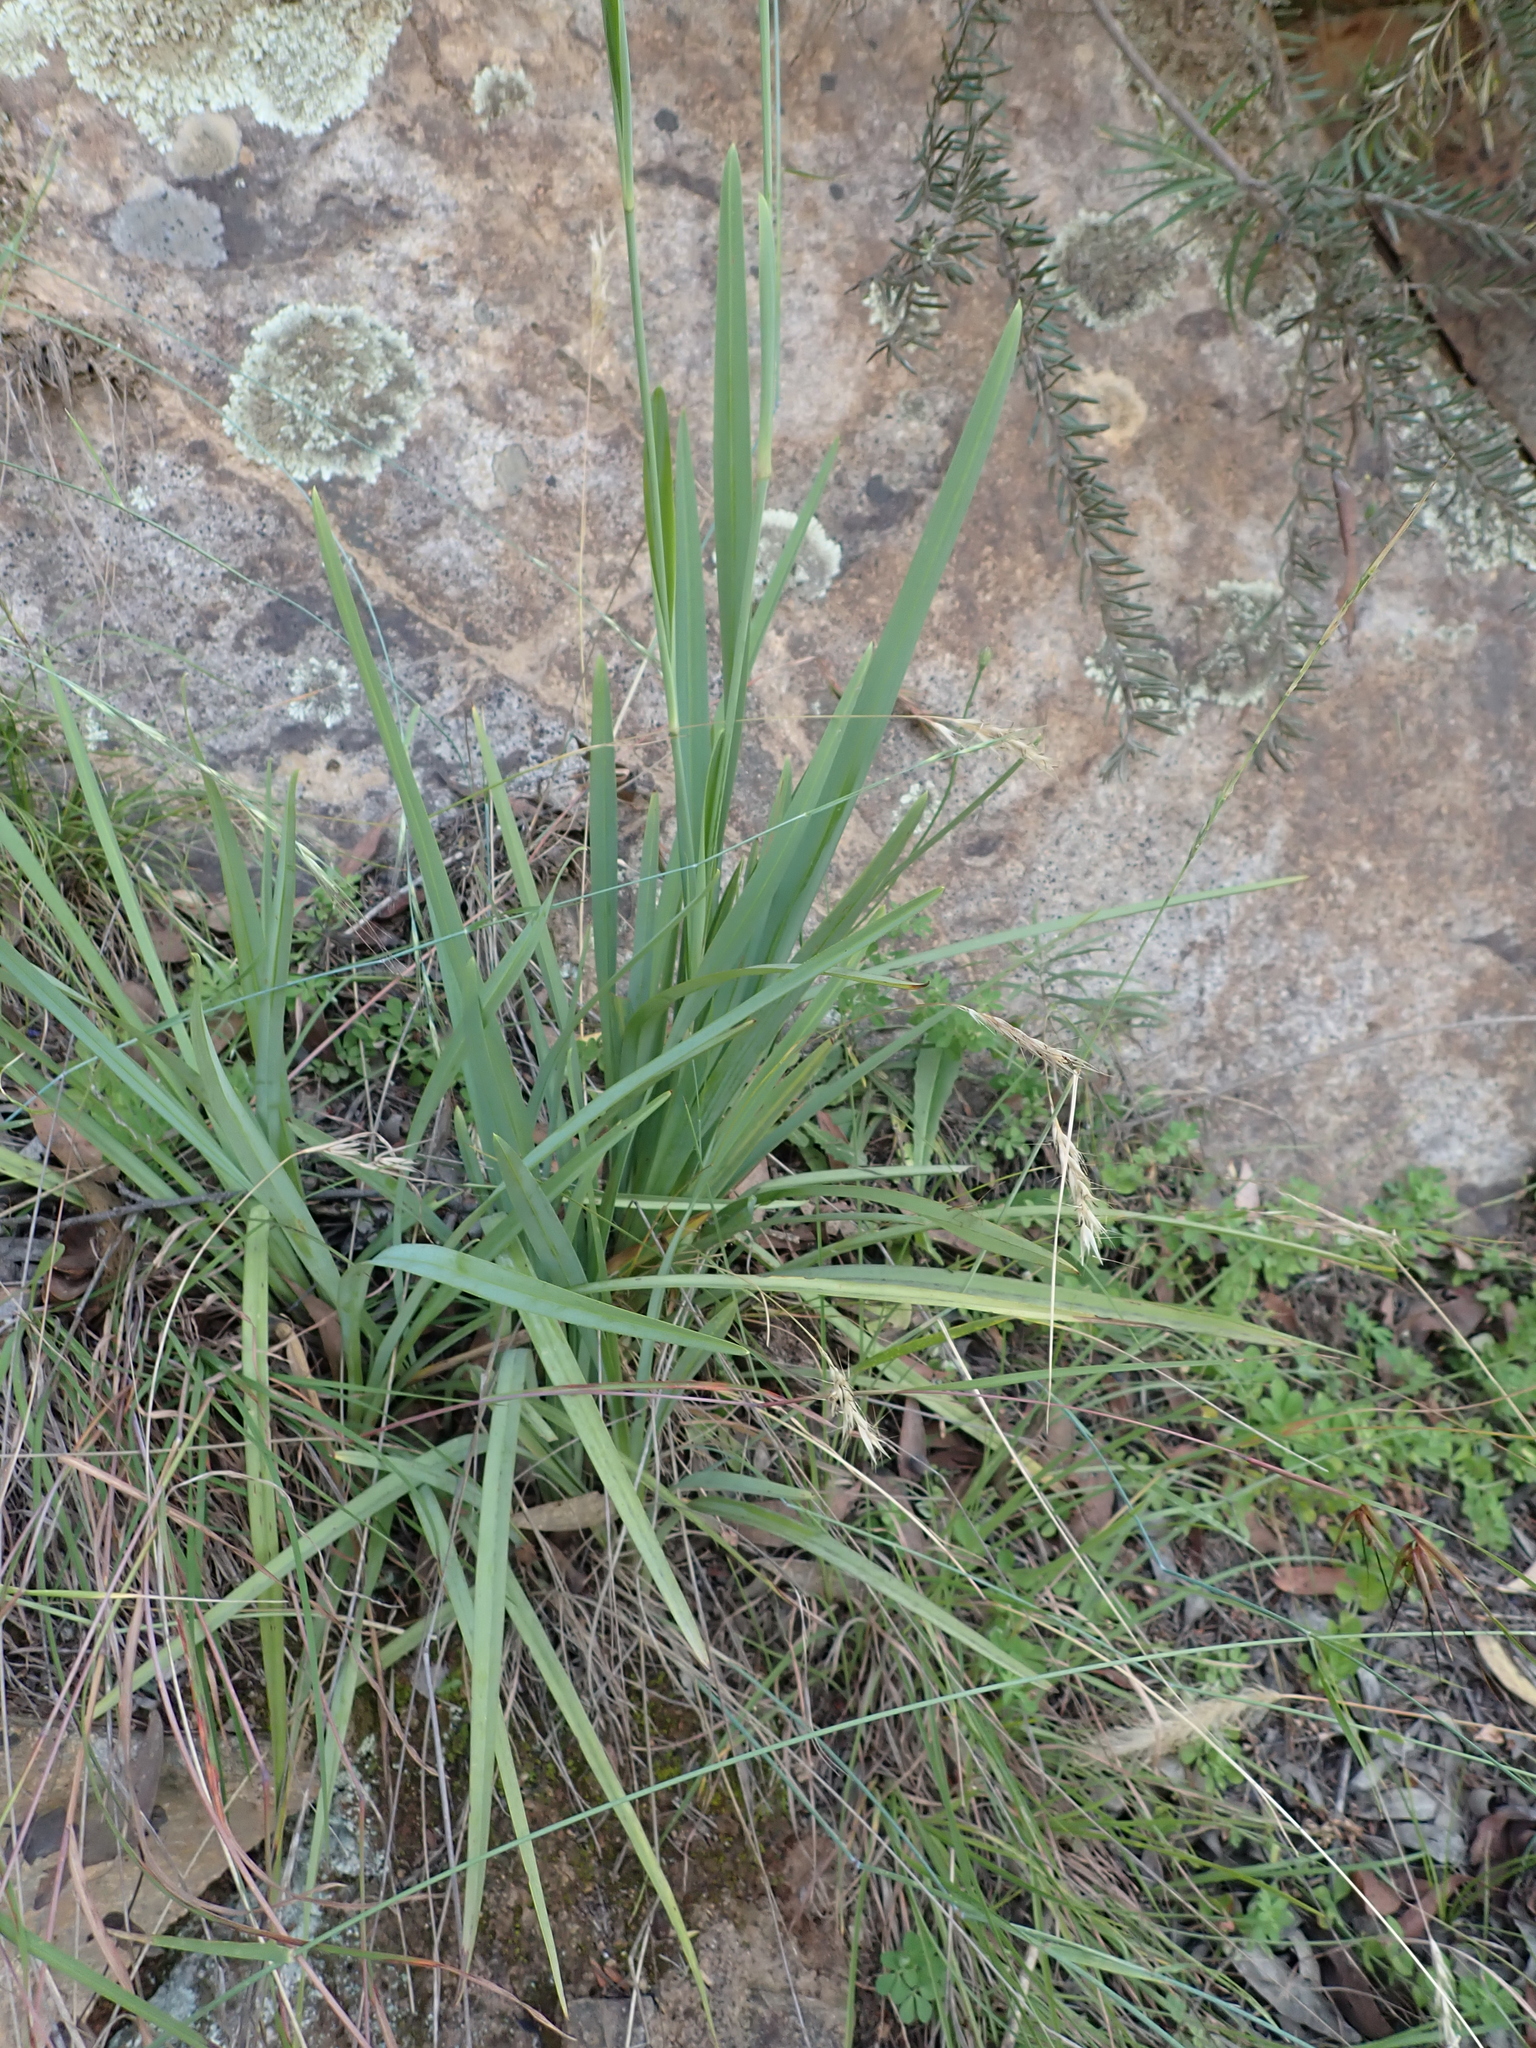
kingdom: Plantae
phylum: Tracheophyta
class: Liliopsida
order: Asparagales
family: Asphodelaceae
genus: Dianella
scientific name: Dianella longifolia
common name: Blue flax-lily
